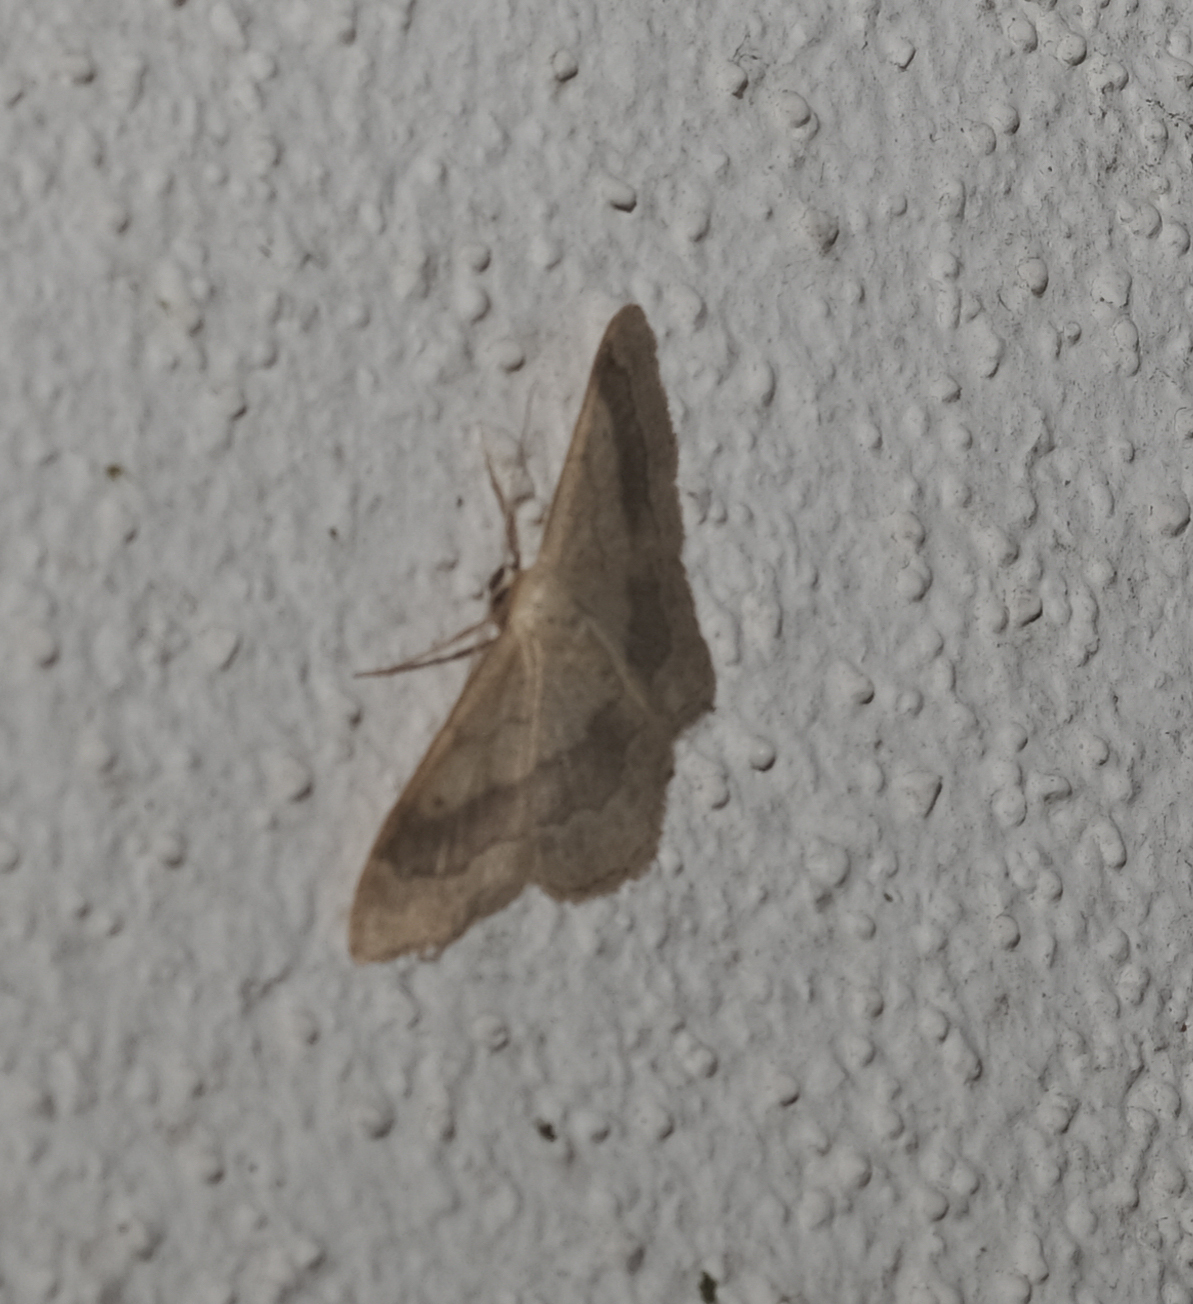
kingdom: Animalia
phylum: Arthropoda
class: Insecta
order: Lepidoptera
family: Geometridae
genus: Idaea
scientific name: Idaea aversata
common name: Riband wave
